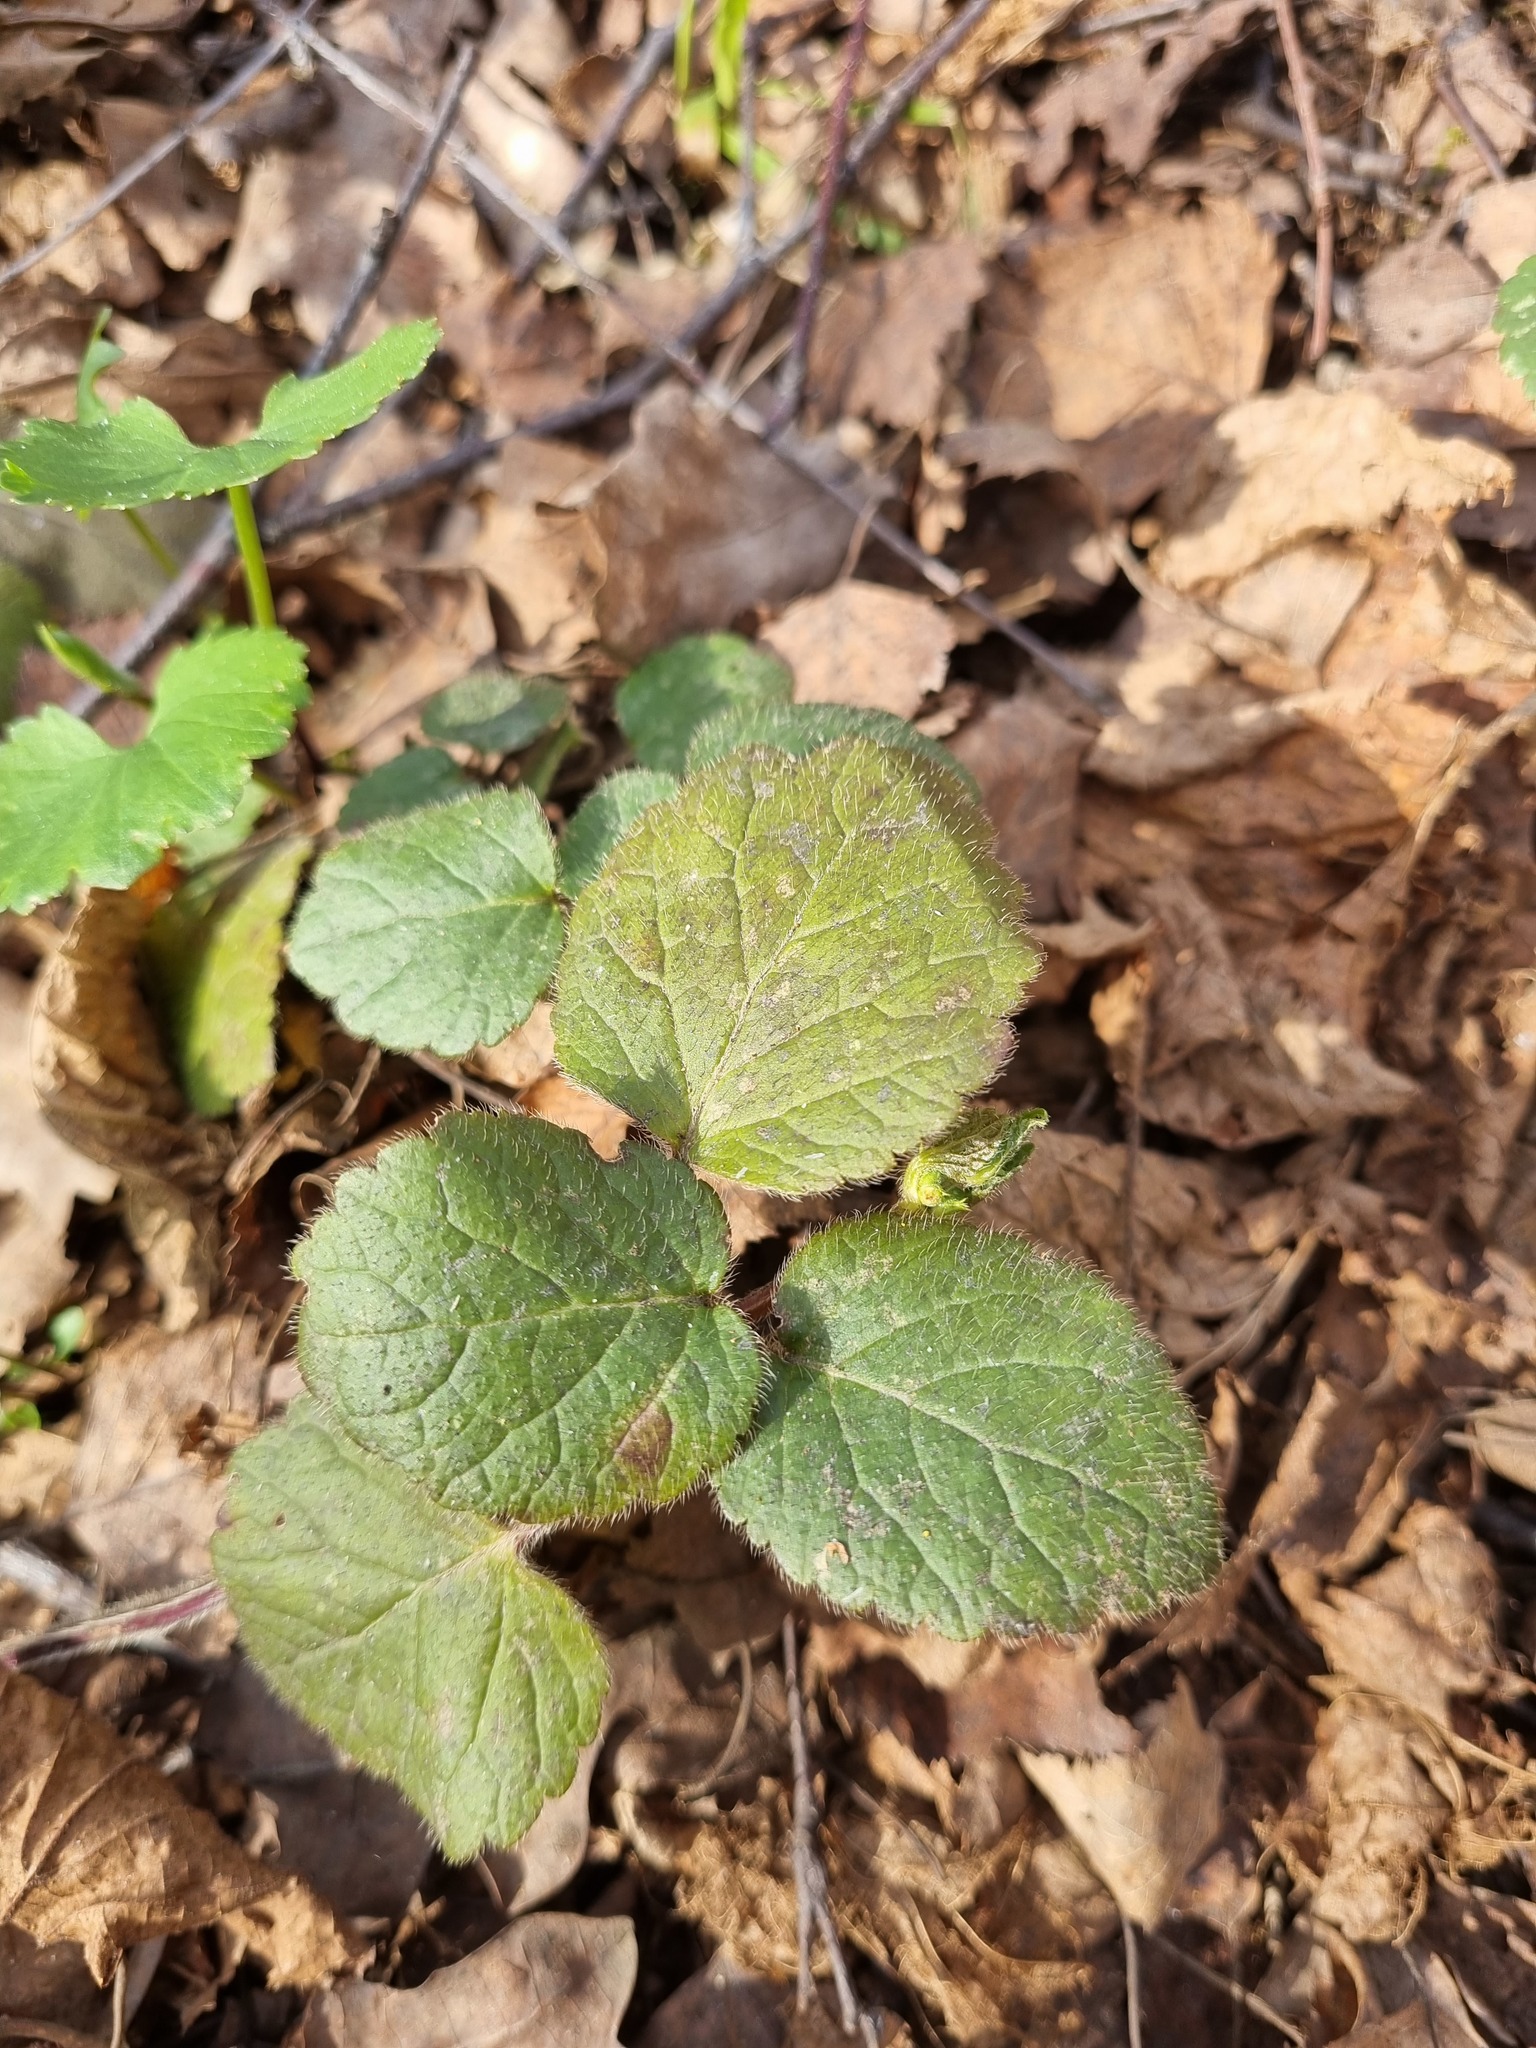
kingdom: Plantae
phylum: Tracheophyta
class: Magnoliopsida
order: Lamiales
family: Lamiaceae
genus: Lamium
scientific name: Lamium galeobdolon
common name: Yellow archangel
